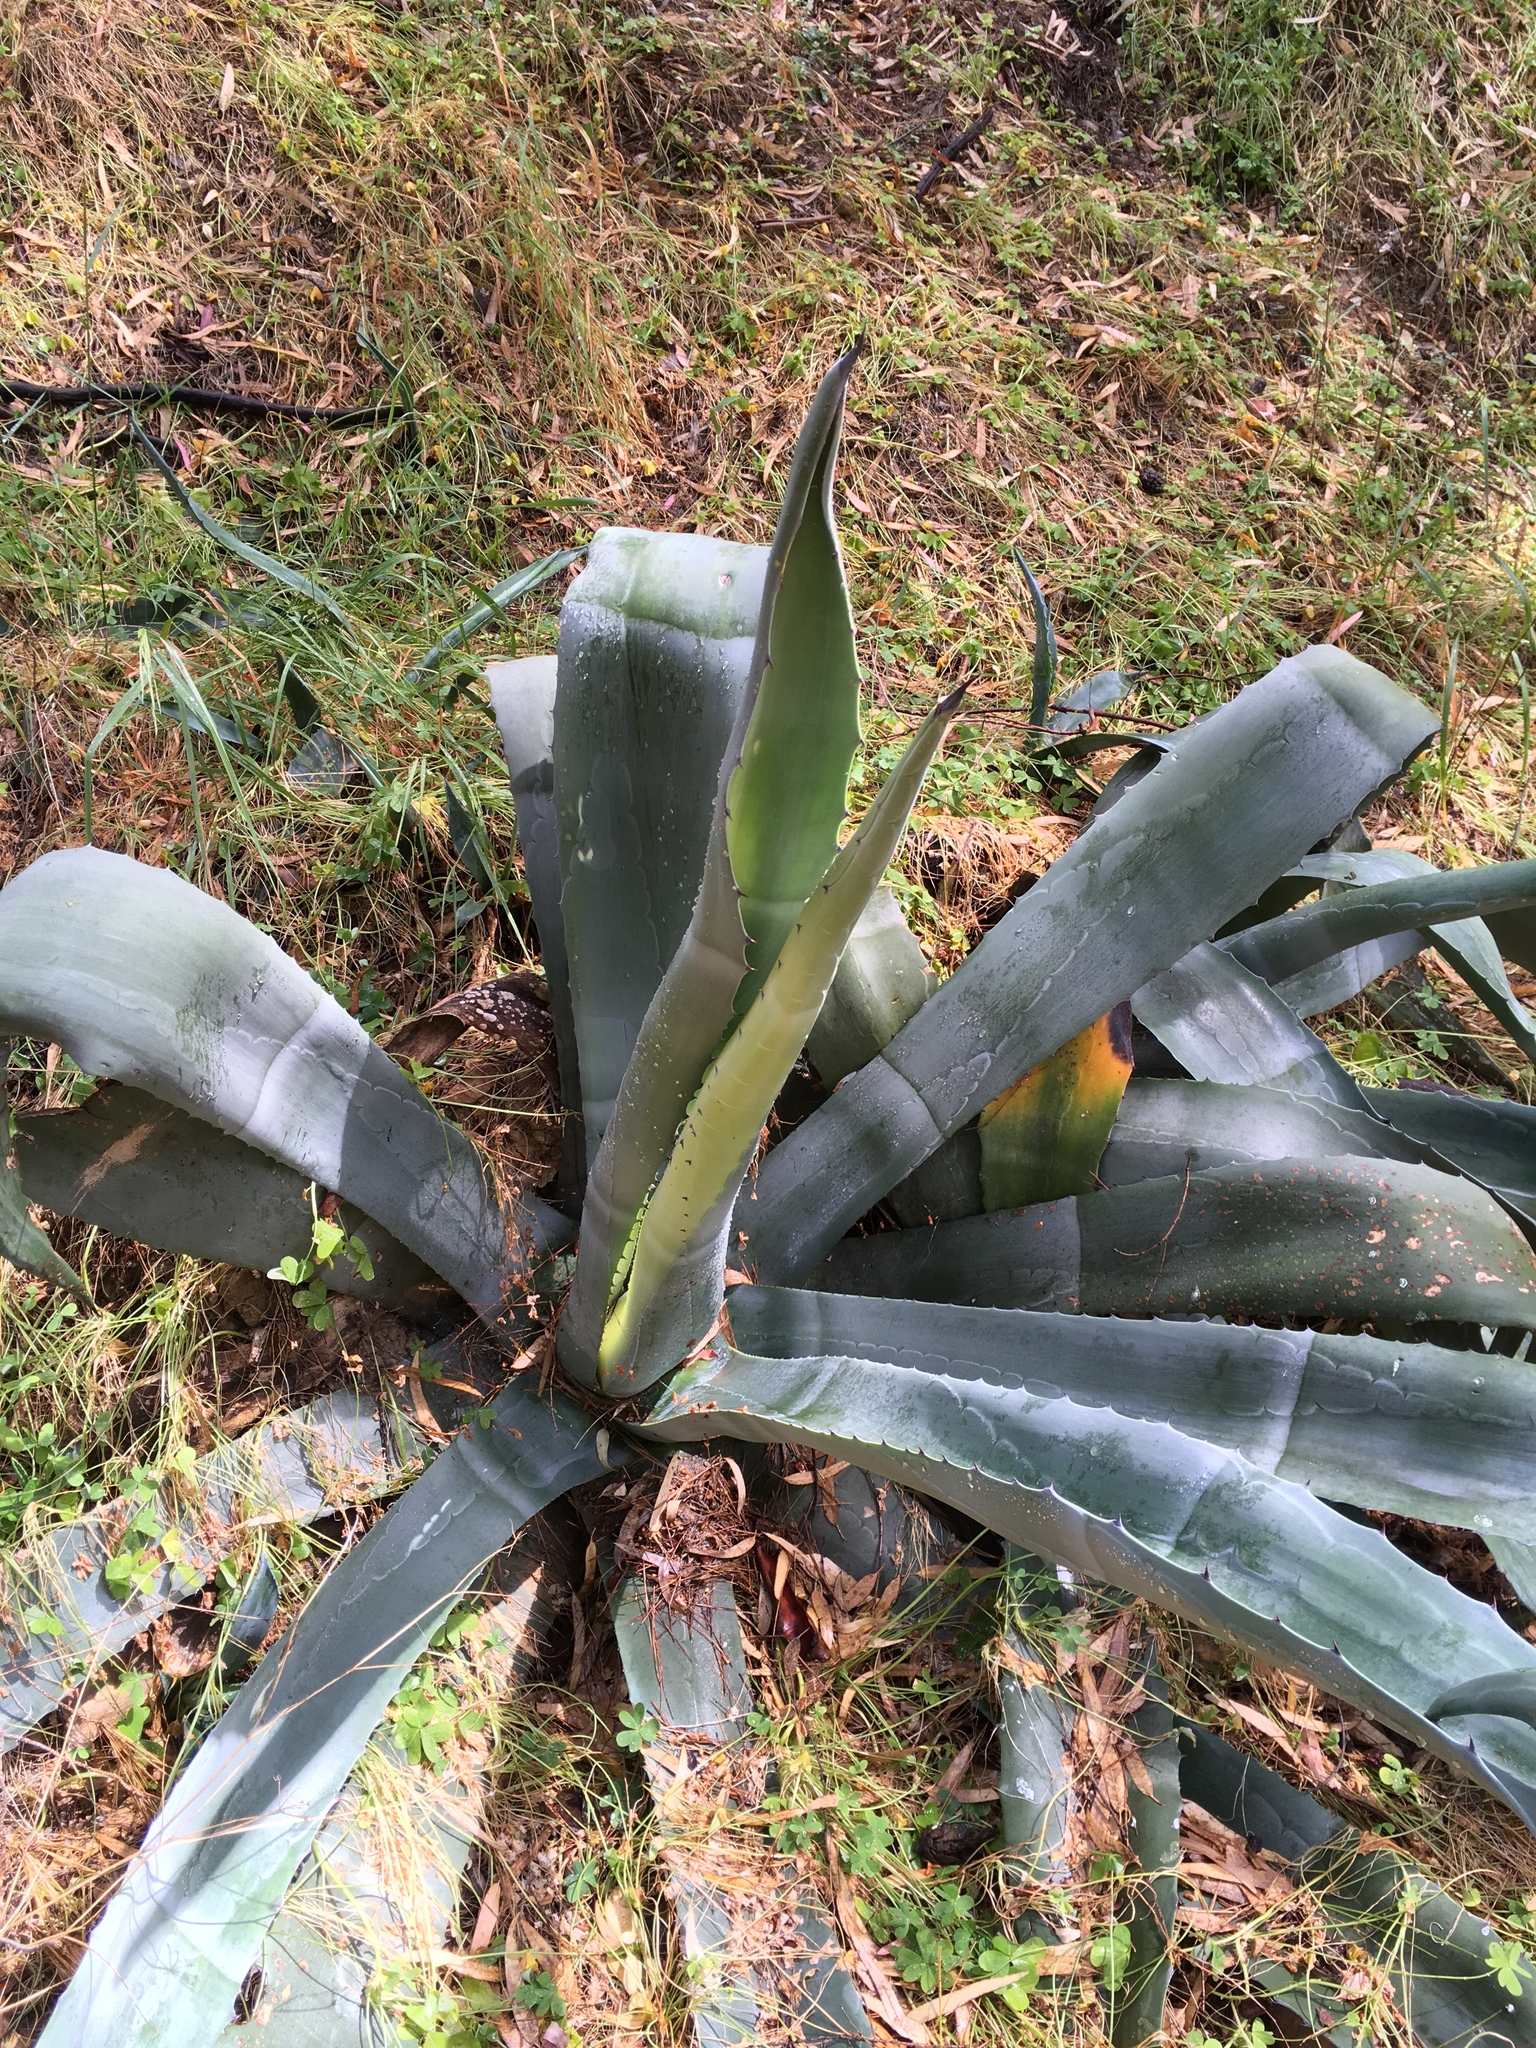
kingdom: Plantae
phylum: Tracheophyta
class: Liliopsida
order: Asparagales
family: Asparagaceae
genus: Agave
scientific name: Agave americana
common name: Centuryplant
